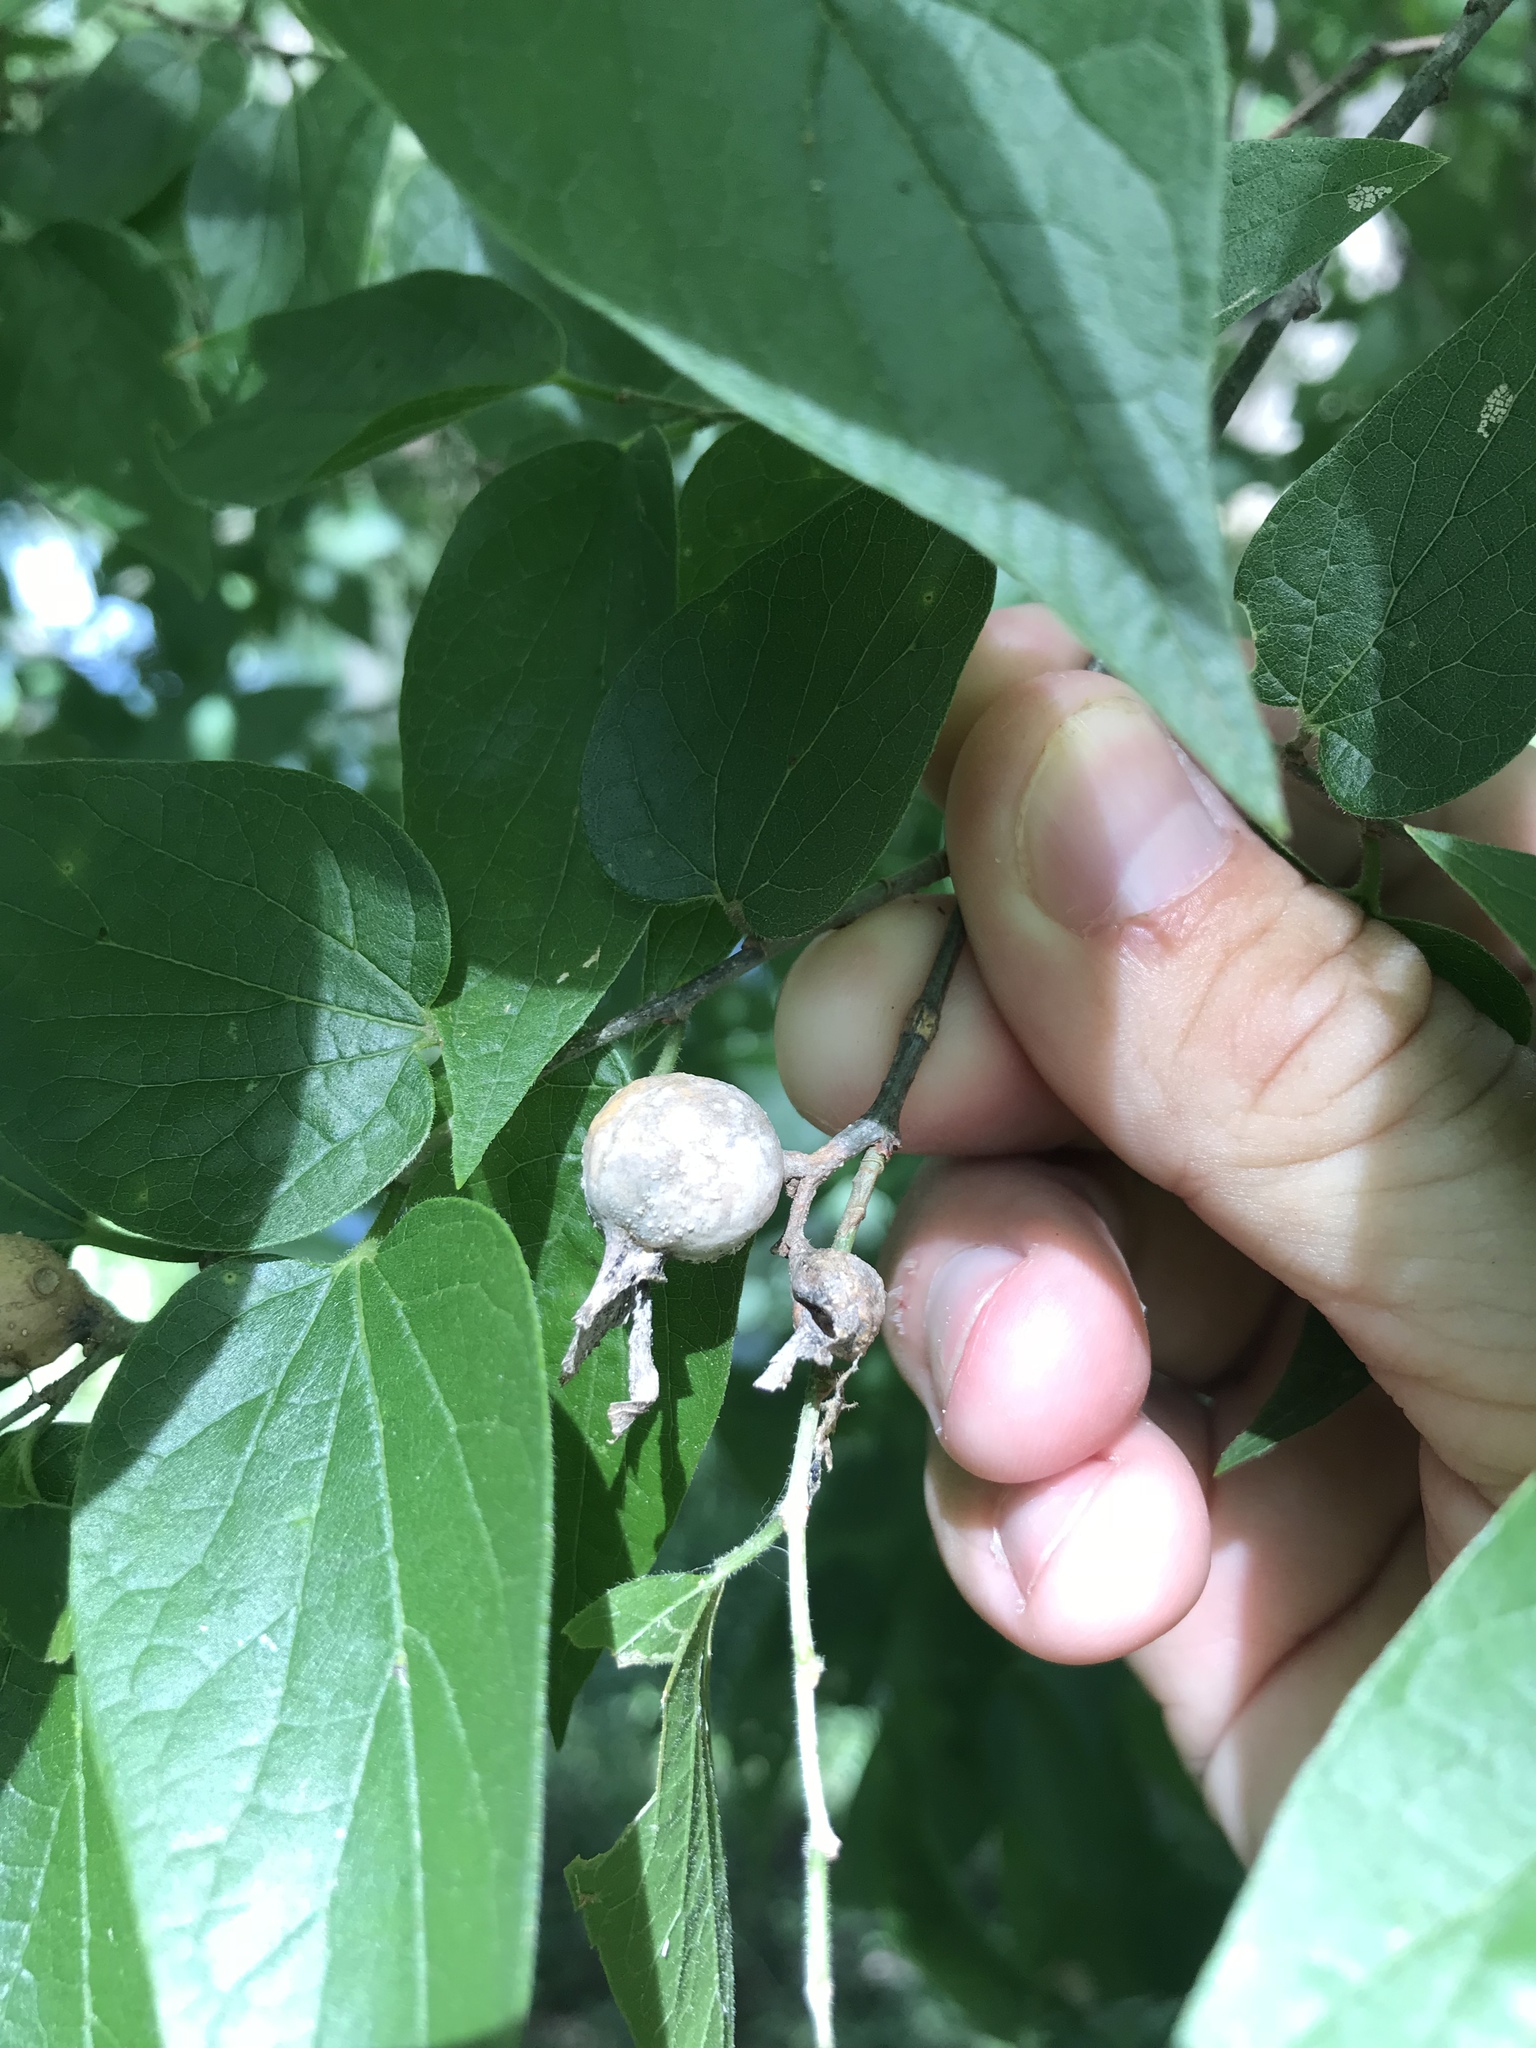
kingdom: Animalia
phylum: Arthropoda
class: Insecta
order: Hemiptera
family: Aphalaridae
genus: Pachypsylla
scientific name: Pachypsylla venusta
